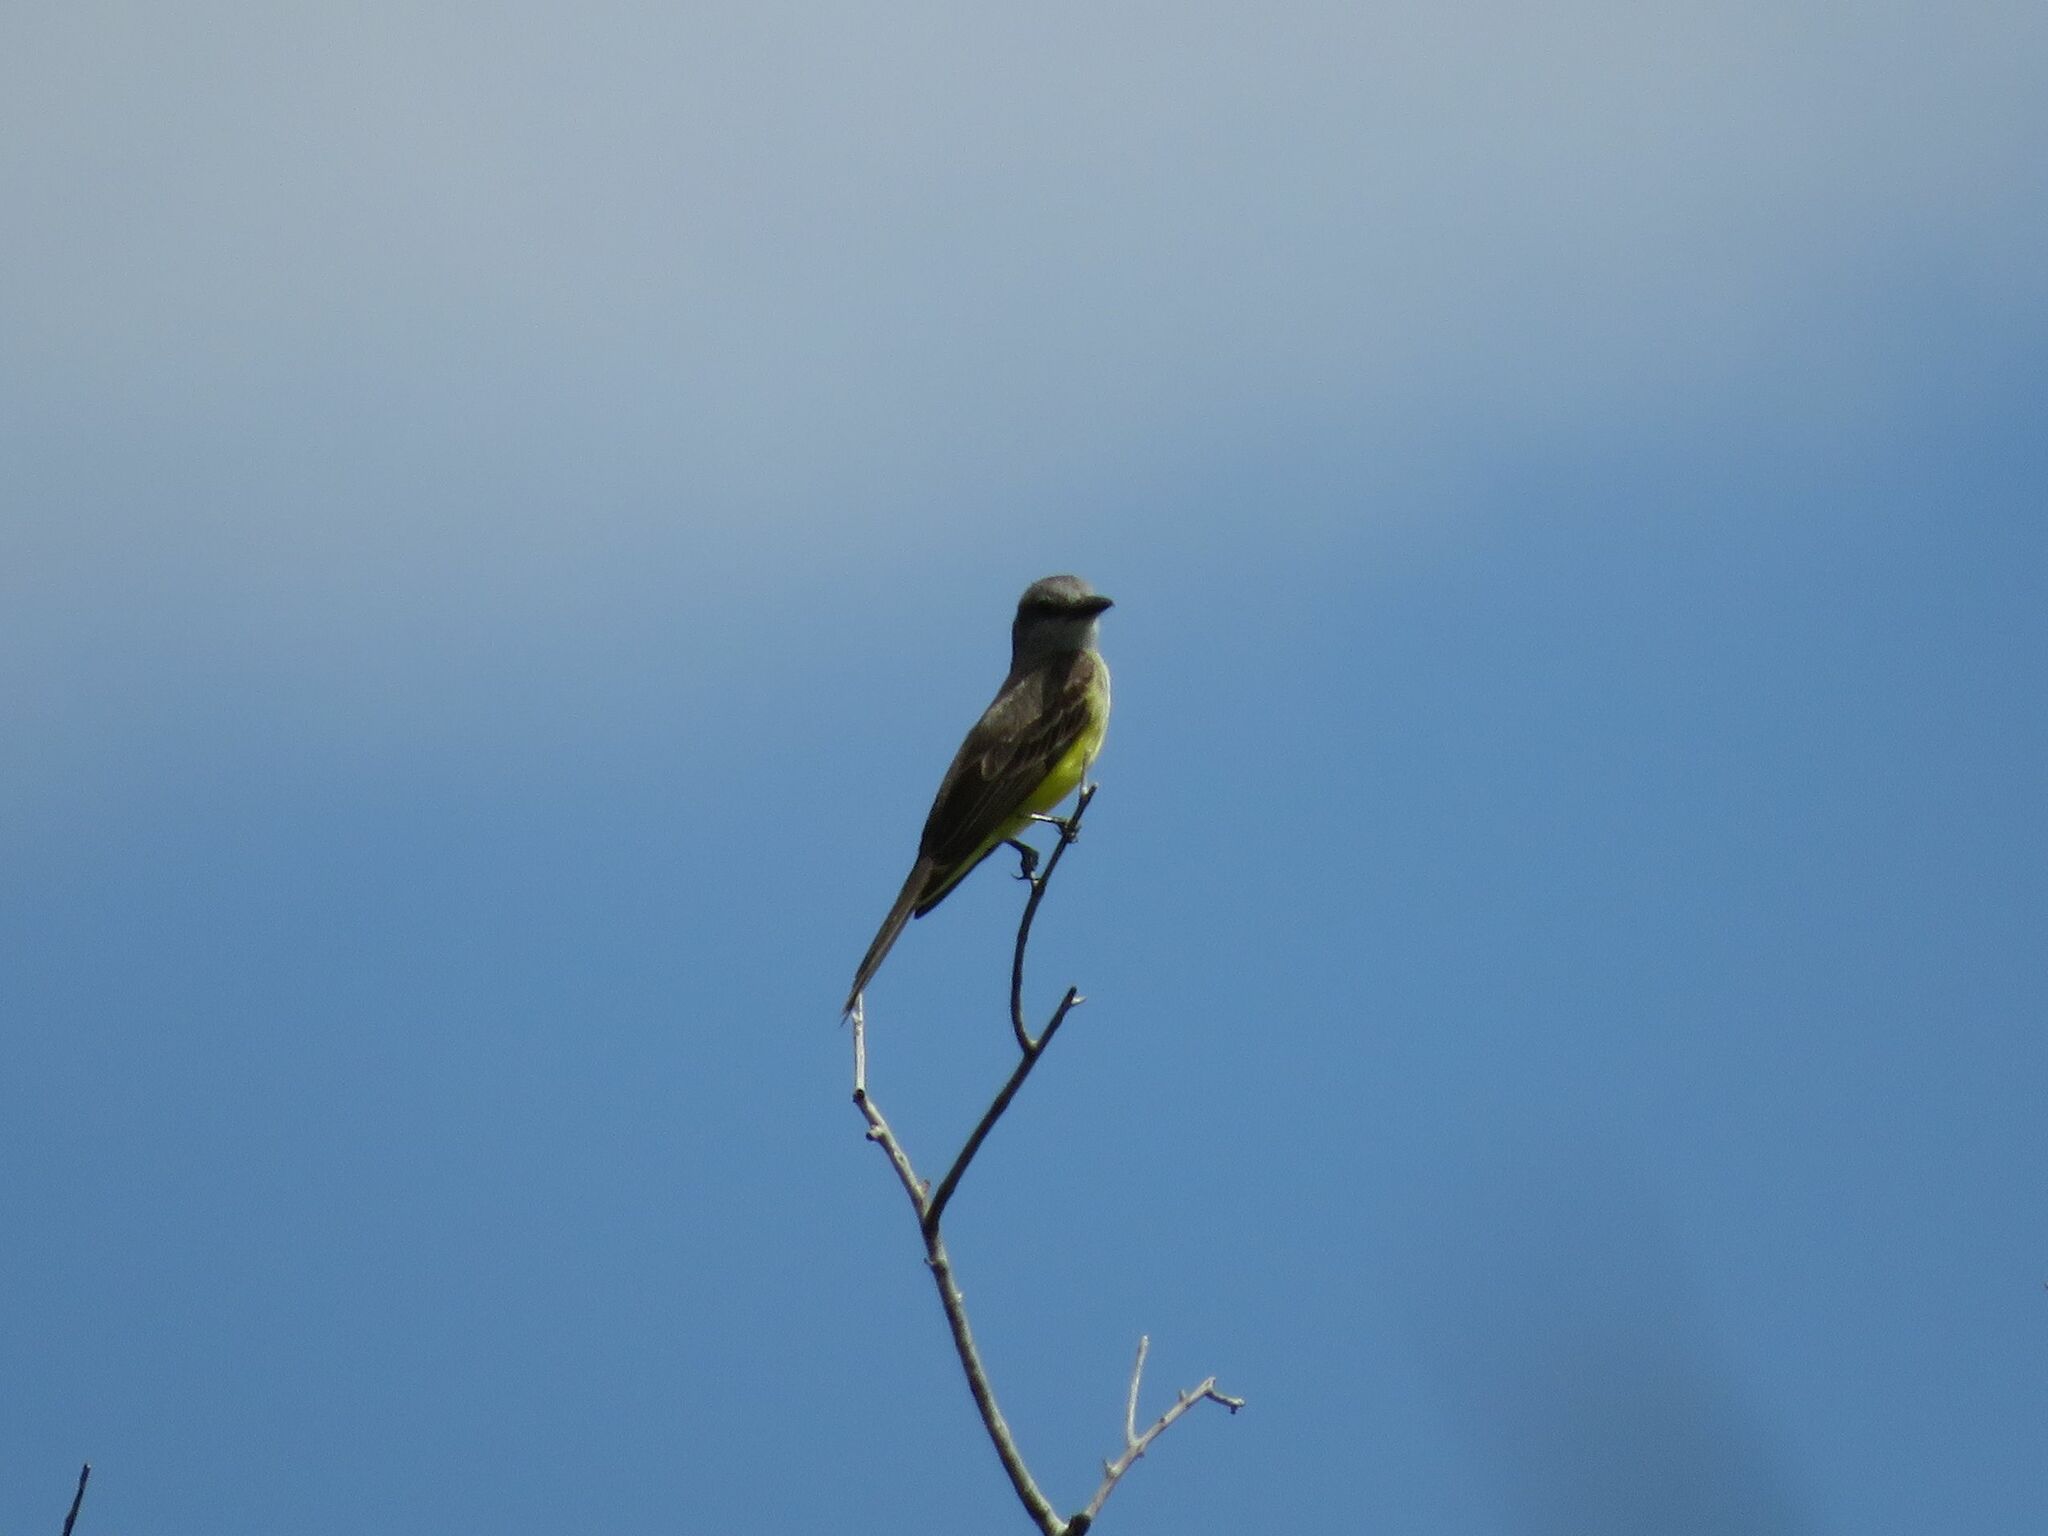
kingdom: Animalia
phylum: Chordata
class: Aves
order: Passeriformes
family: Tyrannidae
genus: Tyrannus
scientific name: Tyrannus melancholicus
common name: Tropical kingbird
